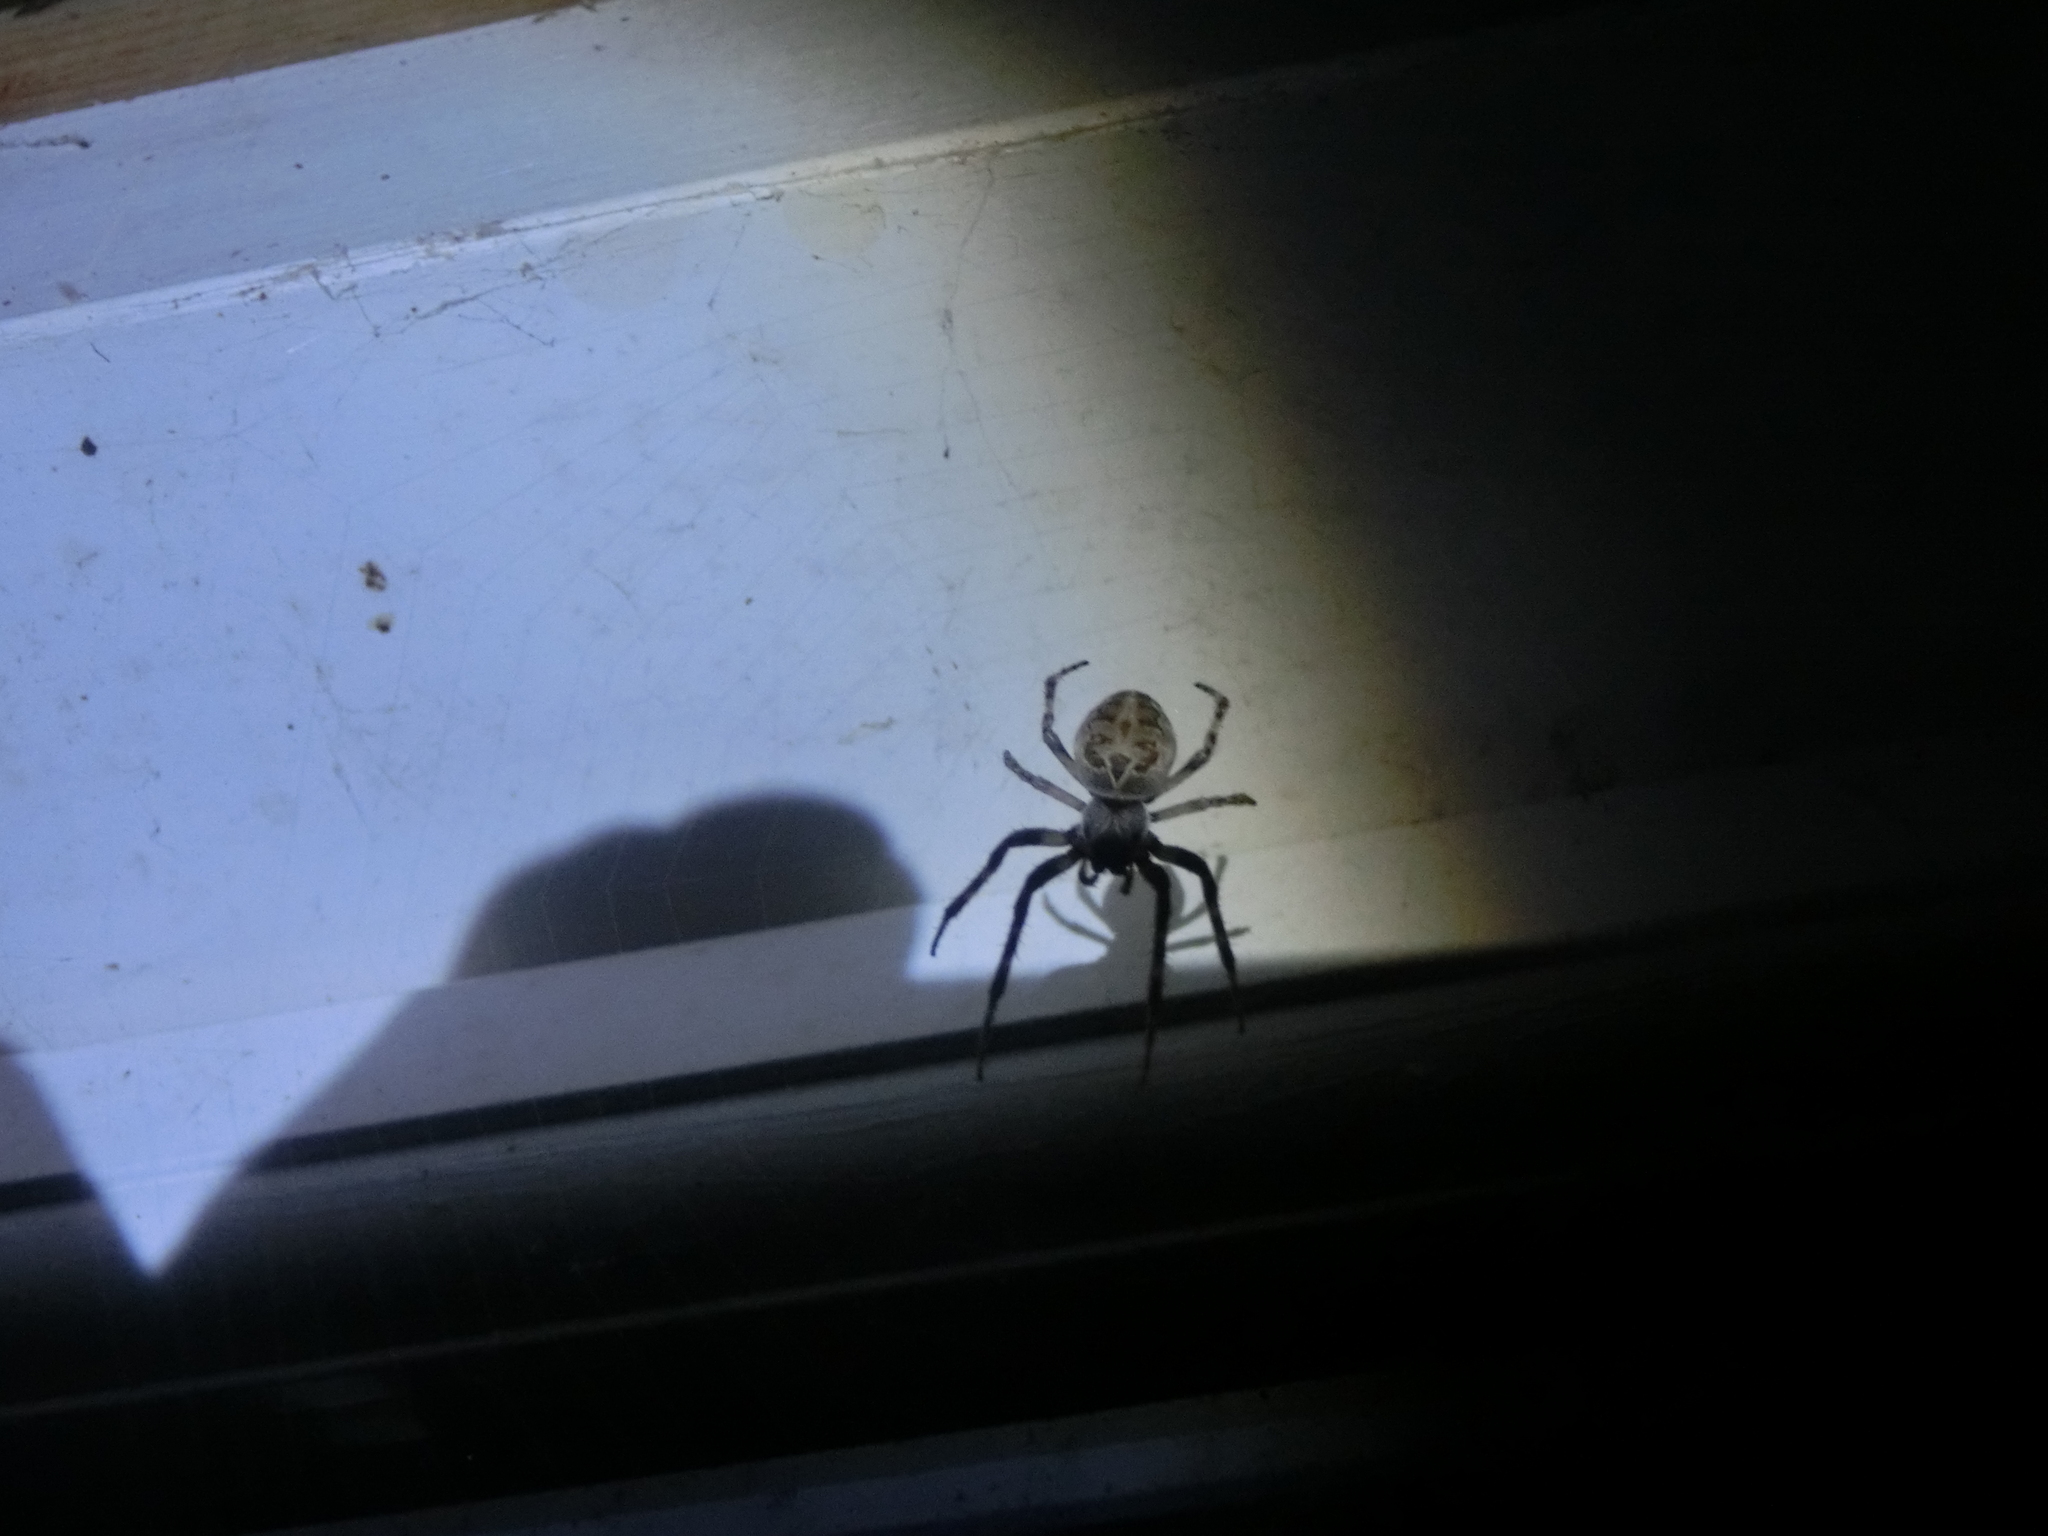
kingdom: Animalia
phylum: Arthropoda
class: Arachnida
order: Araneae
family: Araneidae
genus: Larinioides
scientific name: Larinioides sclopetarius
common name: Bridge orbweaver
